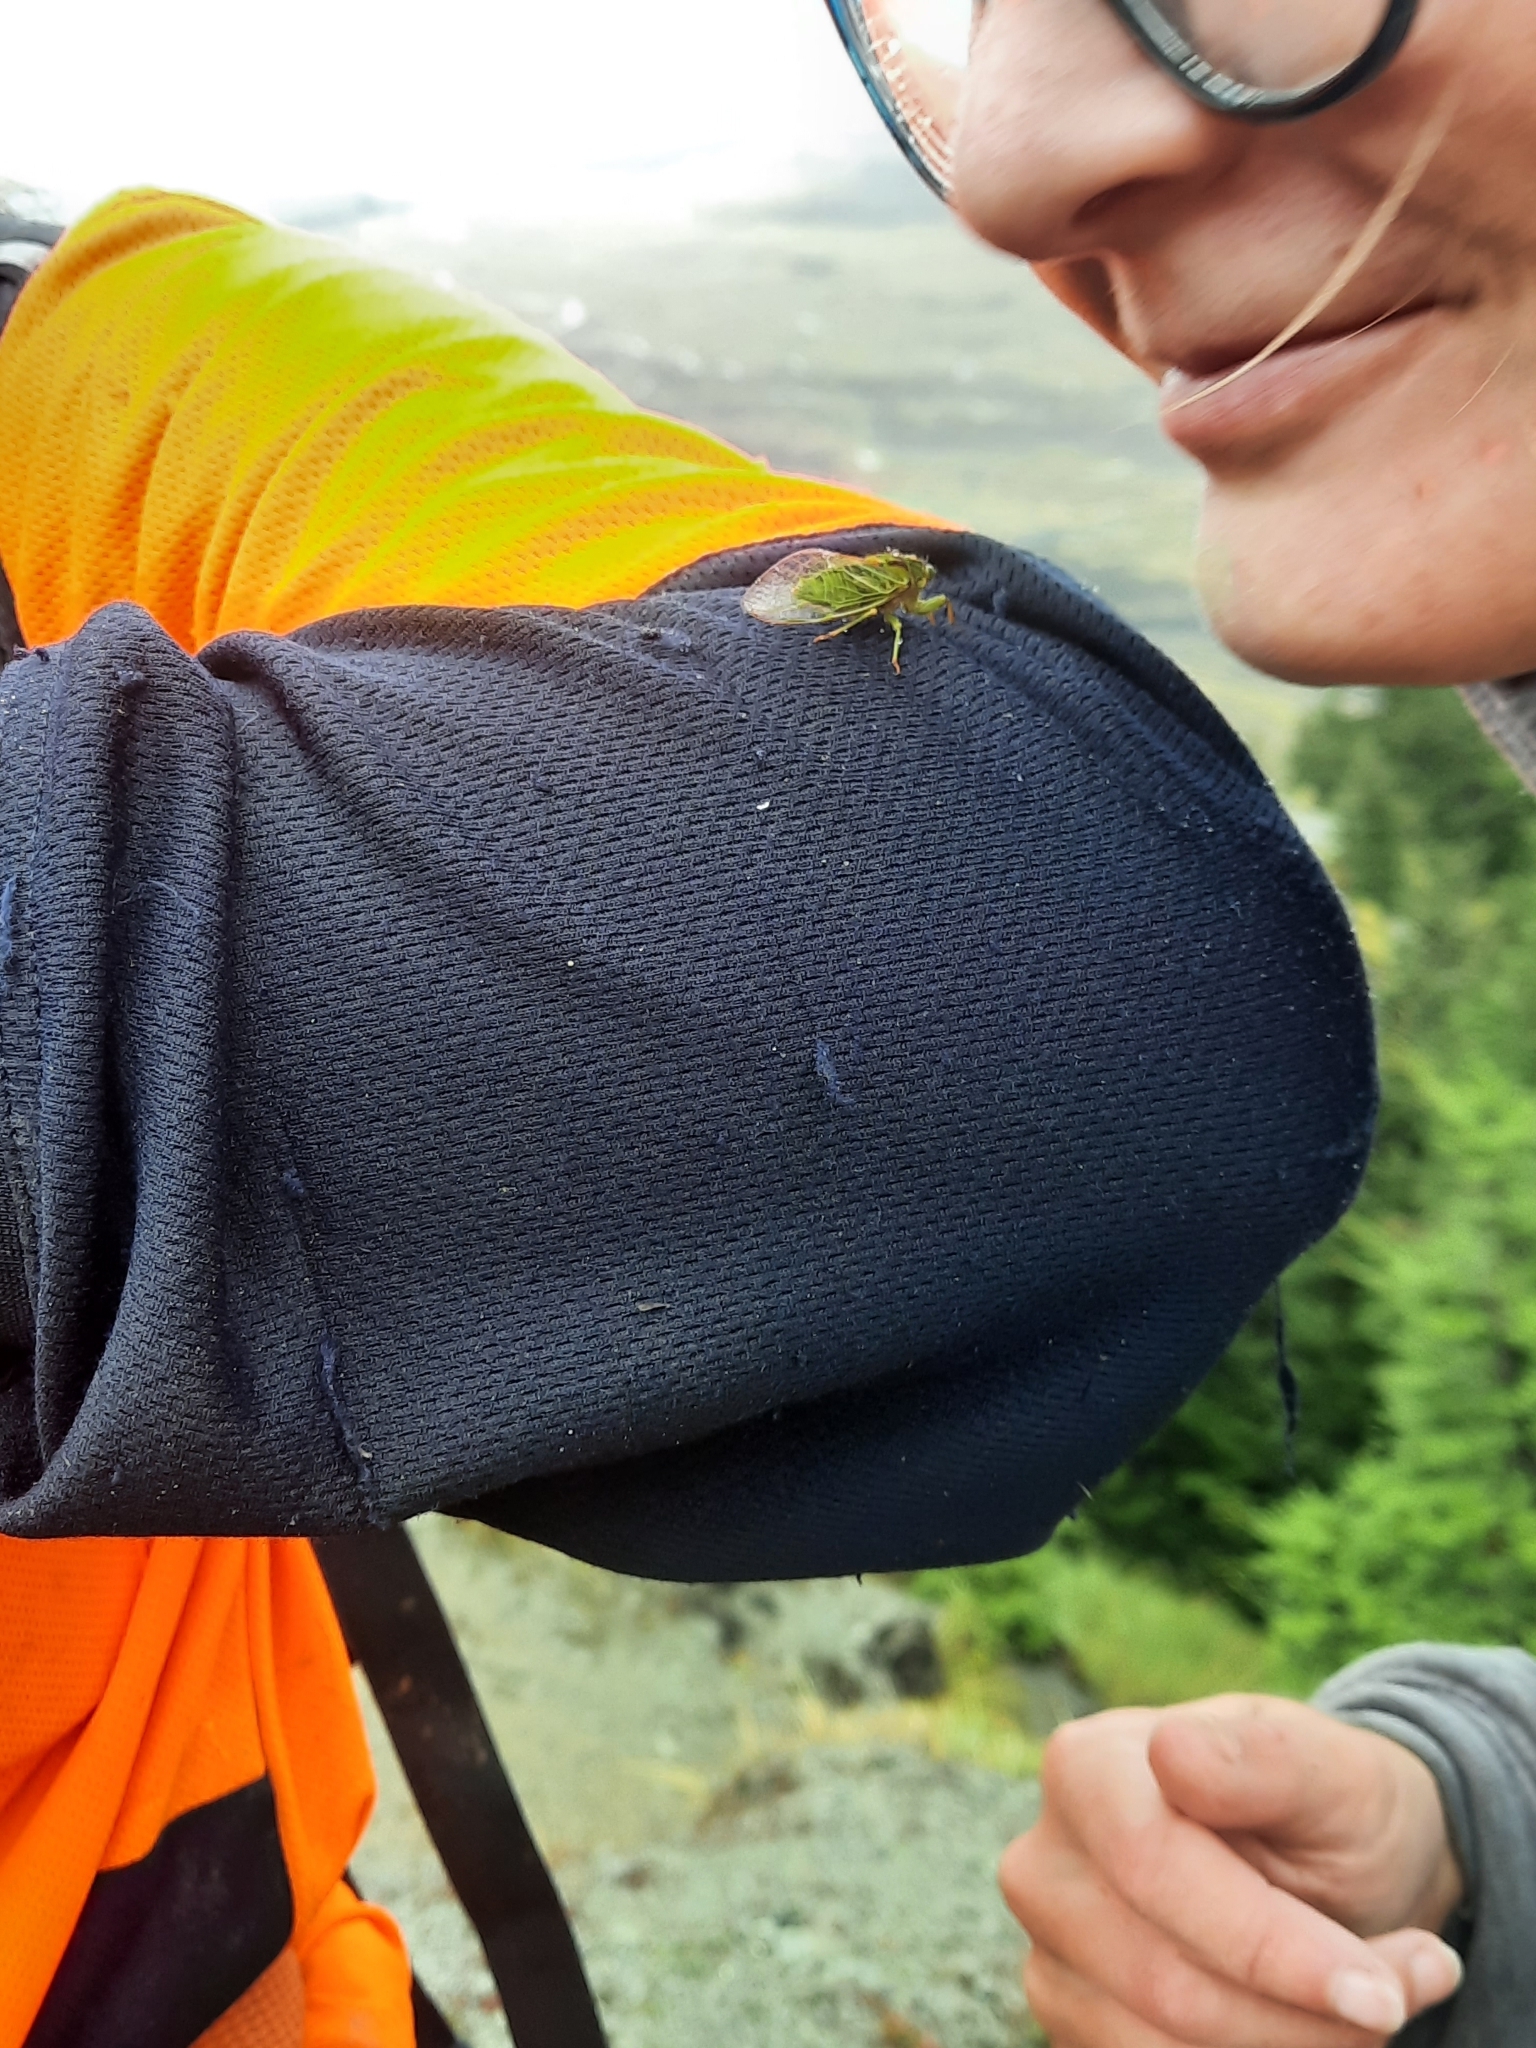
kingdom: Animalia
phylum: Arthropoda
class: Insecta
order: Hemiptera
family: Cicadidae
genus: Kikihia
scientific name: Kikihia subalpina
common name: Chathams cicada
